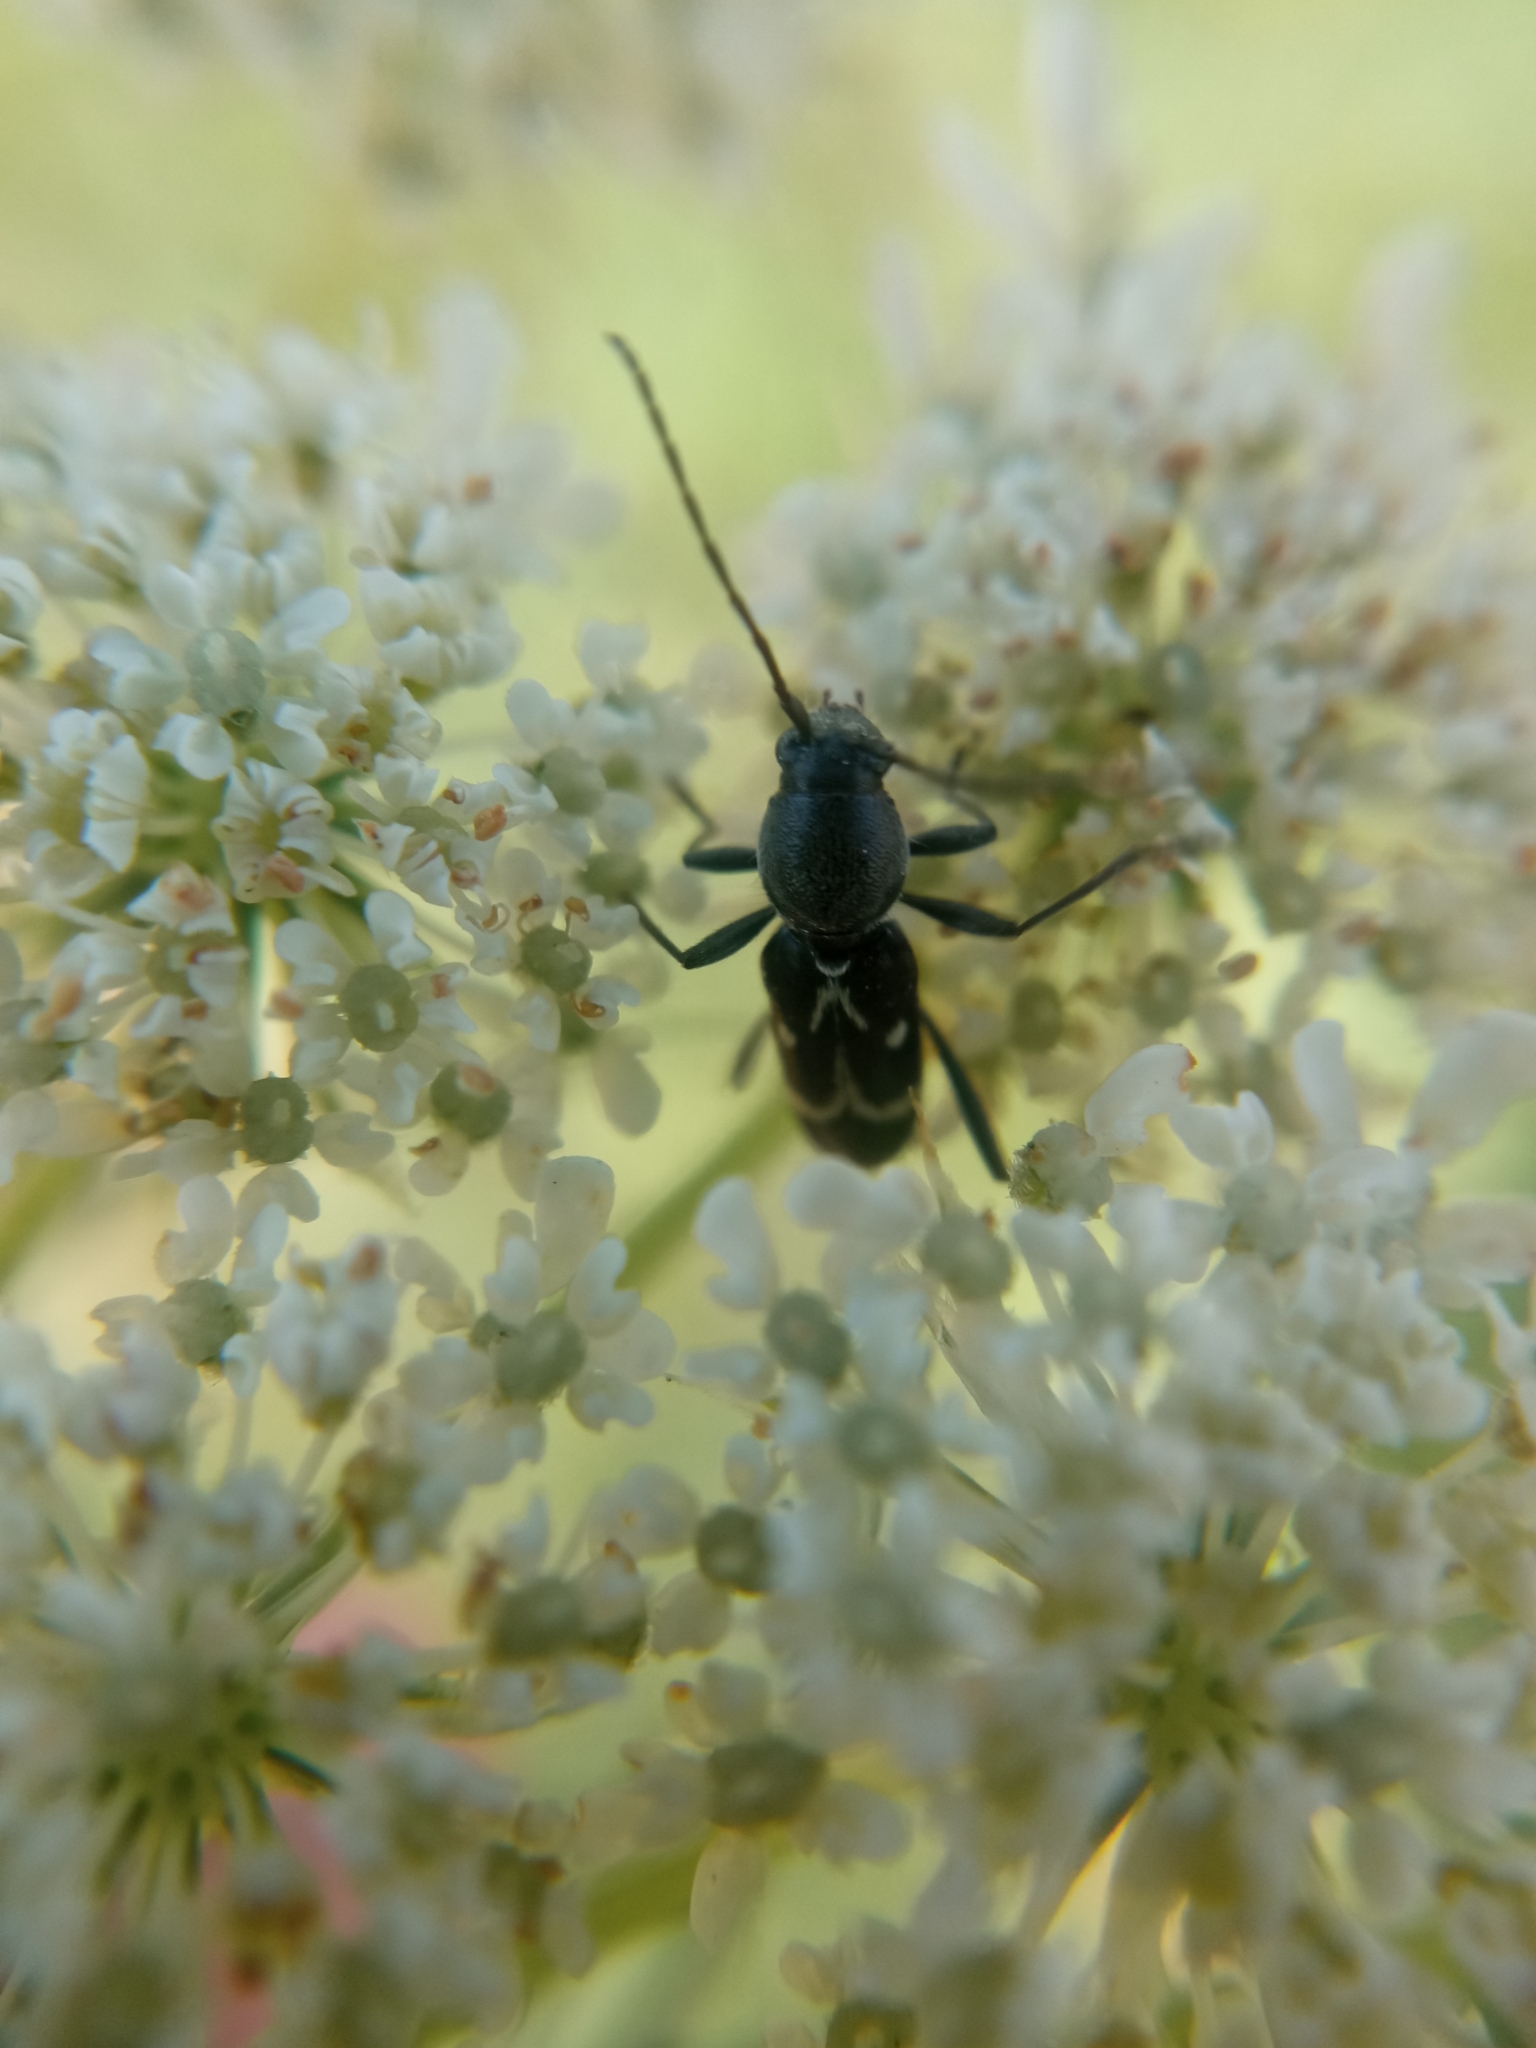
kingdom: Animalia
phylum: Arthropoda
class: Insecta
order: Coleoptera
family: Cerambycidae
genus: Chlorophorus
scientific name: Chlorophorus sartor
